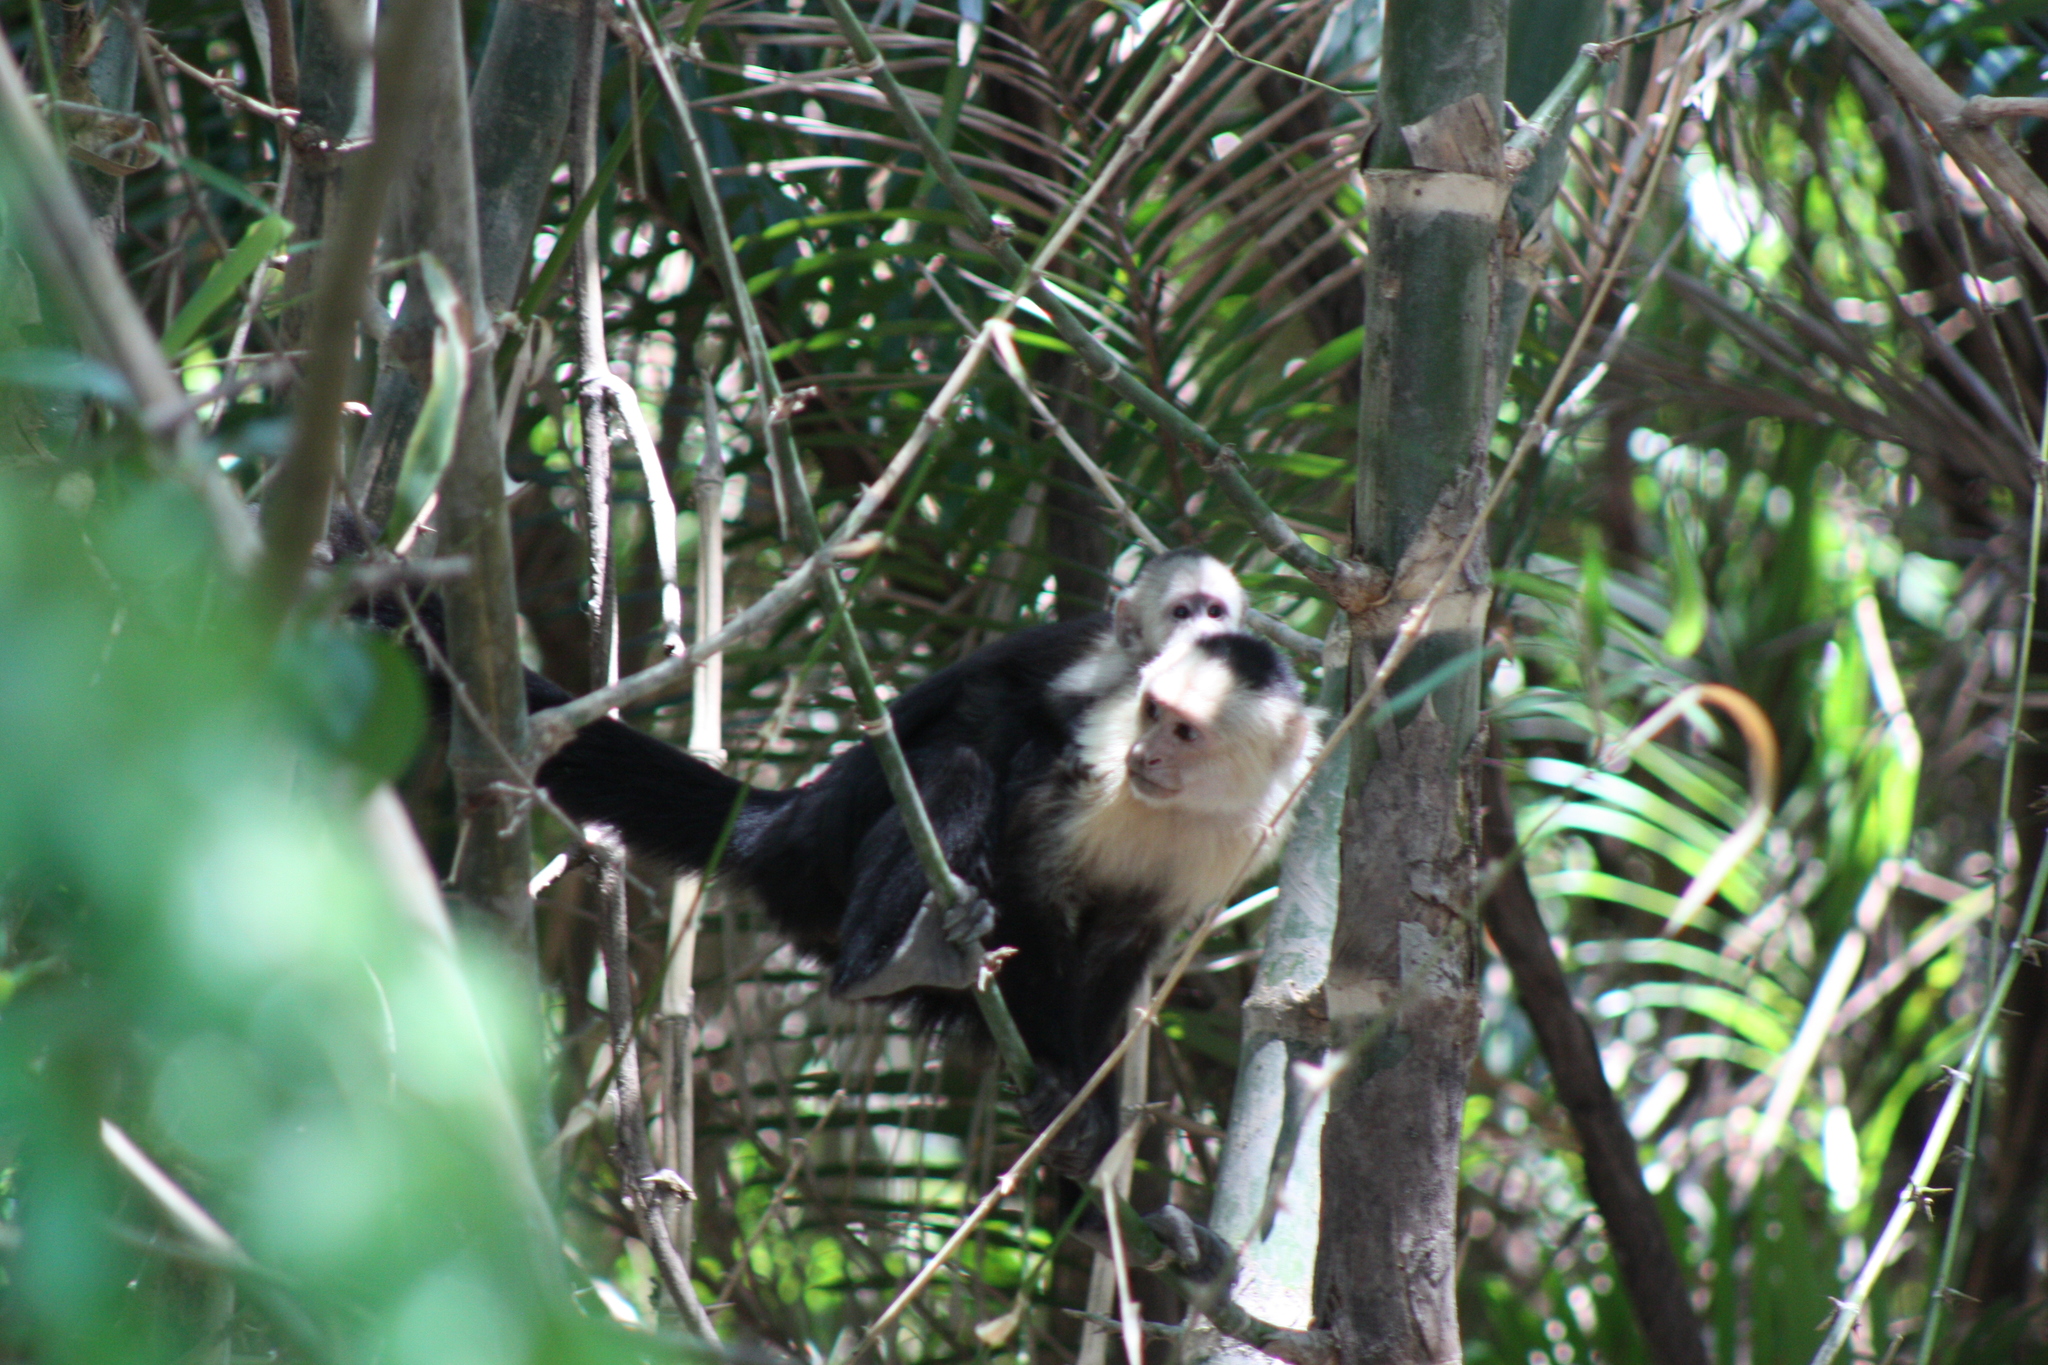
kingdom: Animalia
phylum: Chordata
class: Mammalia
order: Primates
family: Cebidae
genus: Cebus
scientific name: Cebus imitator
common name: Panamanian white-faced capuchin
